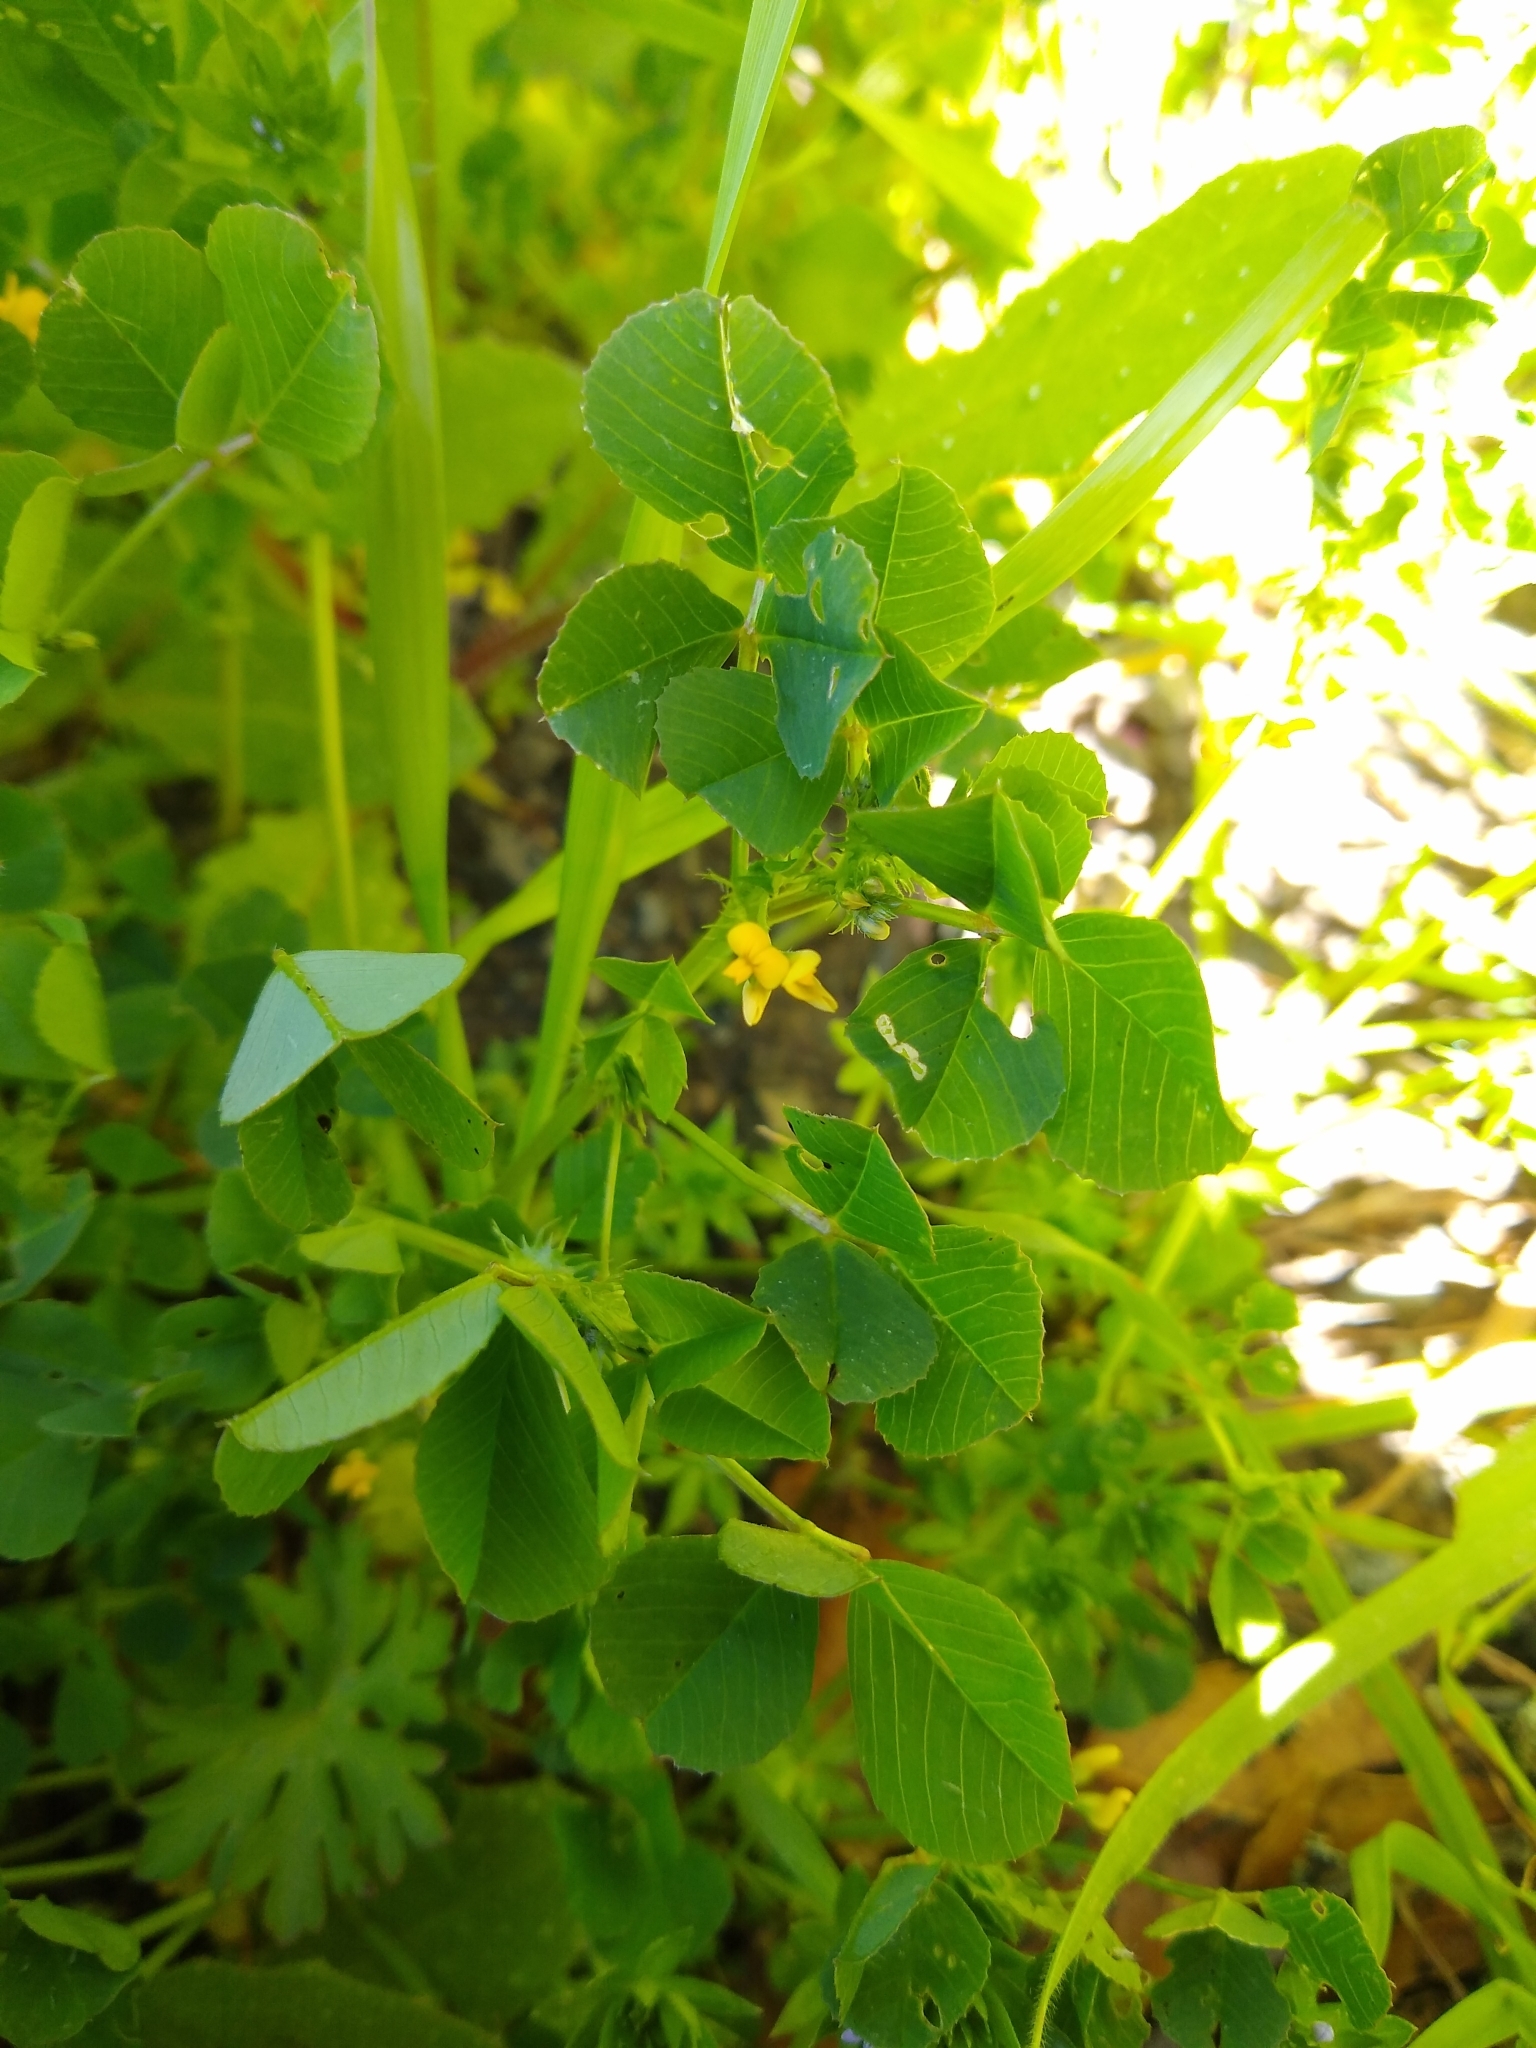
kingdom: Plantae
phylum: Tracheophyta
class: Magnoliopsida
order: Fabales
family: Fabaceae
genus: Medicago
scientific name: Medicago polymorpha
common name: Burclover
